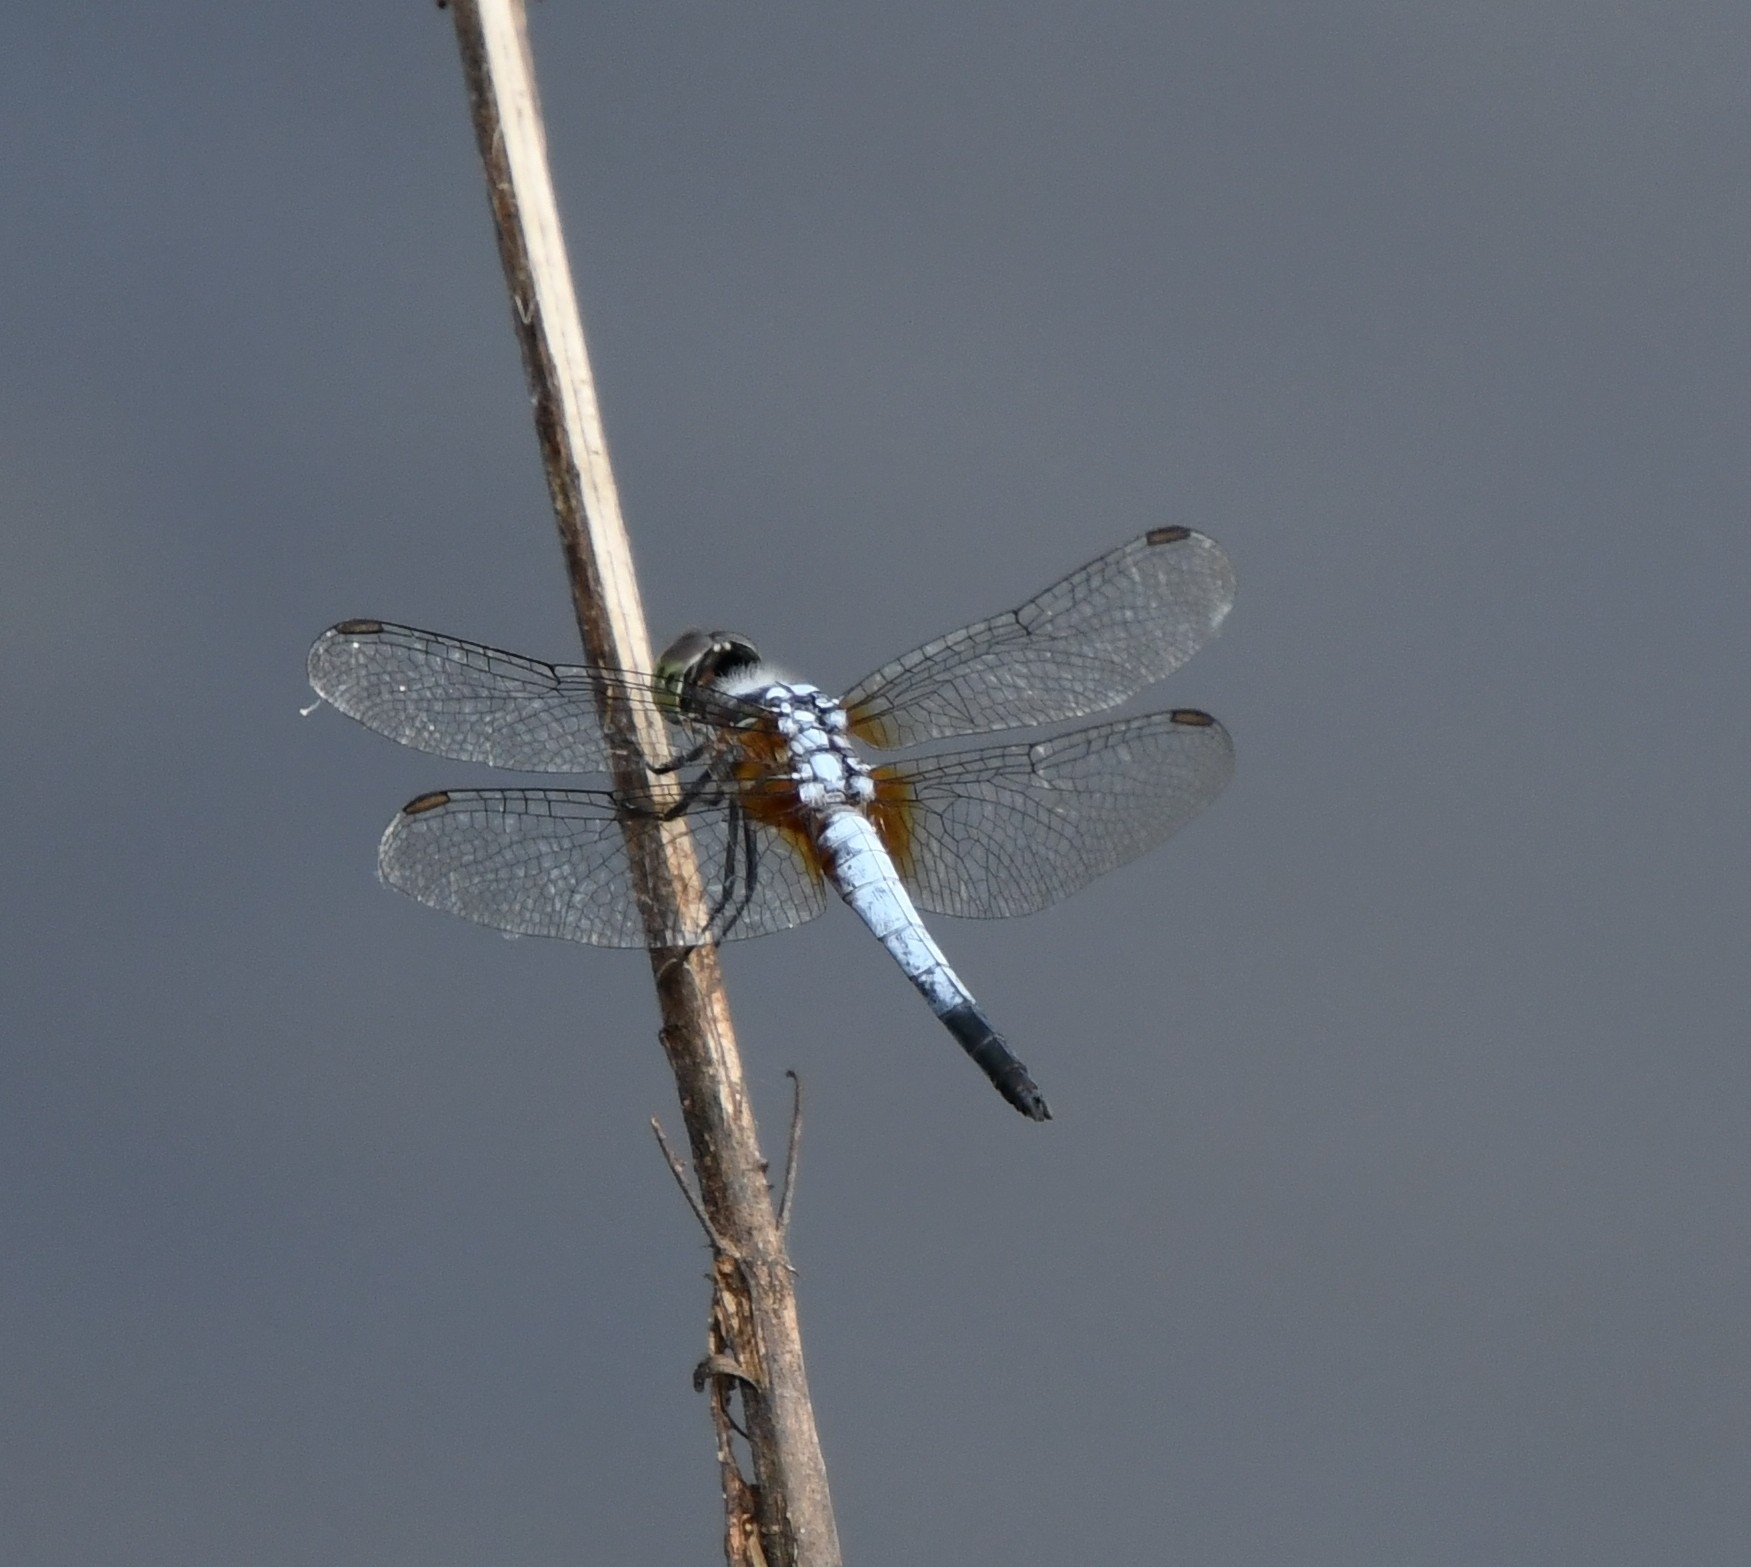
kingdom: Animalia
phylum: Arthropoda
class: Insecta
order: Odonata
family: Libellulidae
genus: Brachydiplax
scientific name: Brachydiplax chalybea
